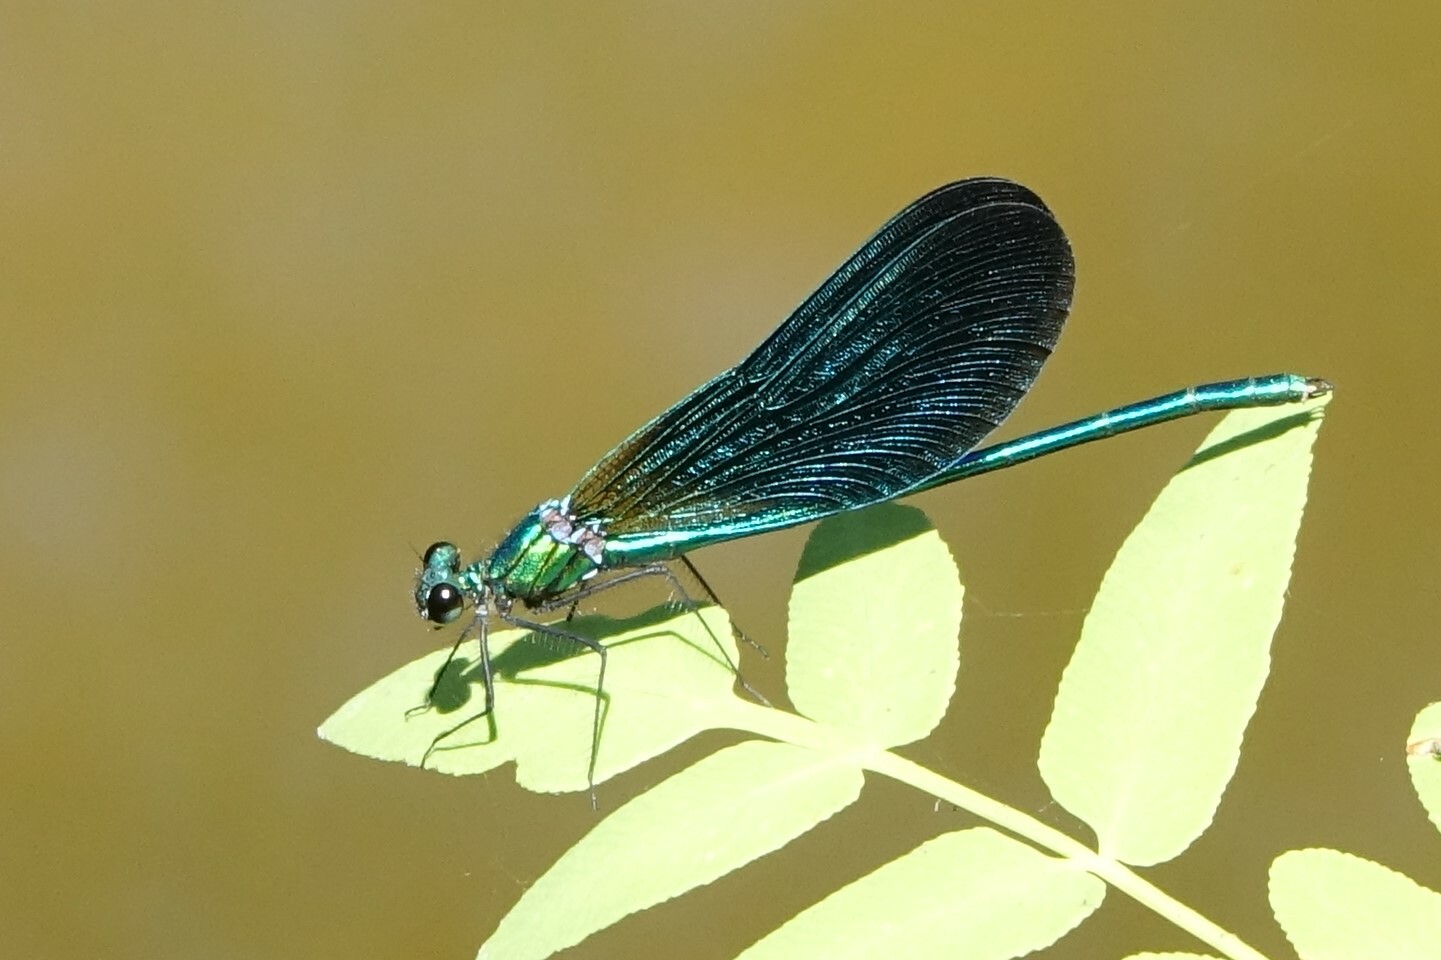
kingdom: Animalia
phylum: Arthropoda
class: Insecta
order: Odonata
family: Calopterygidae
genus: Calopteryx
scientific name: Calopteryx virgo
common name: Beautiful demoiselle
